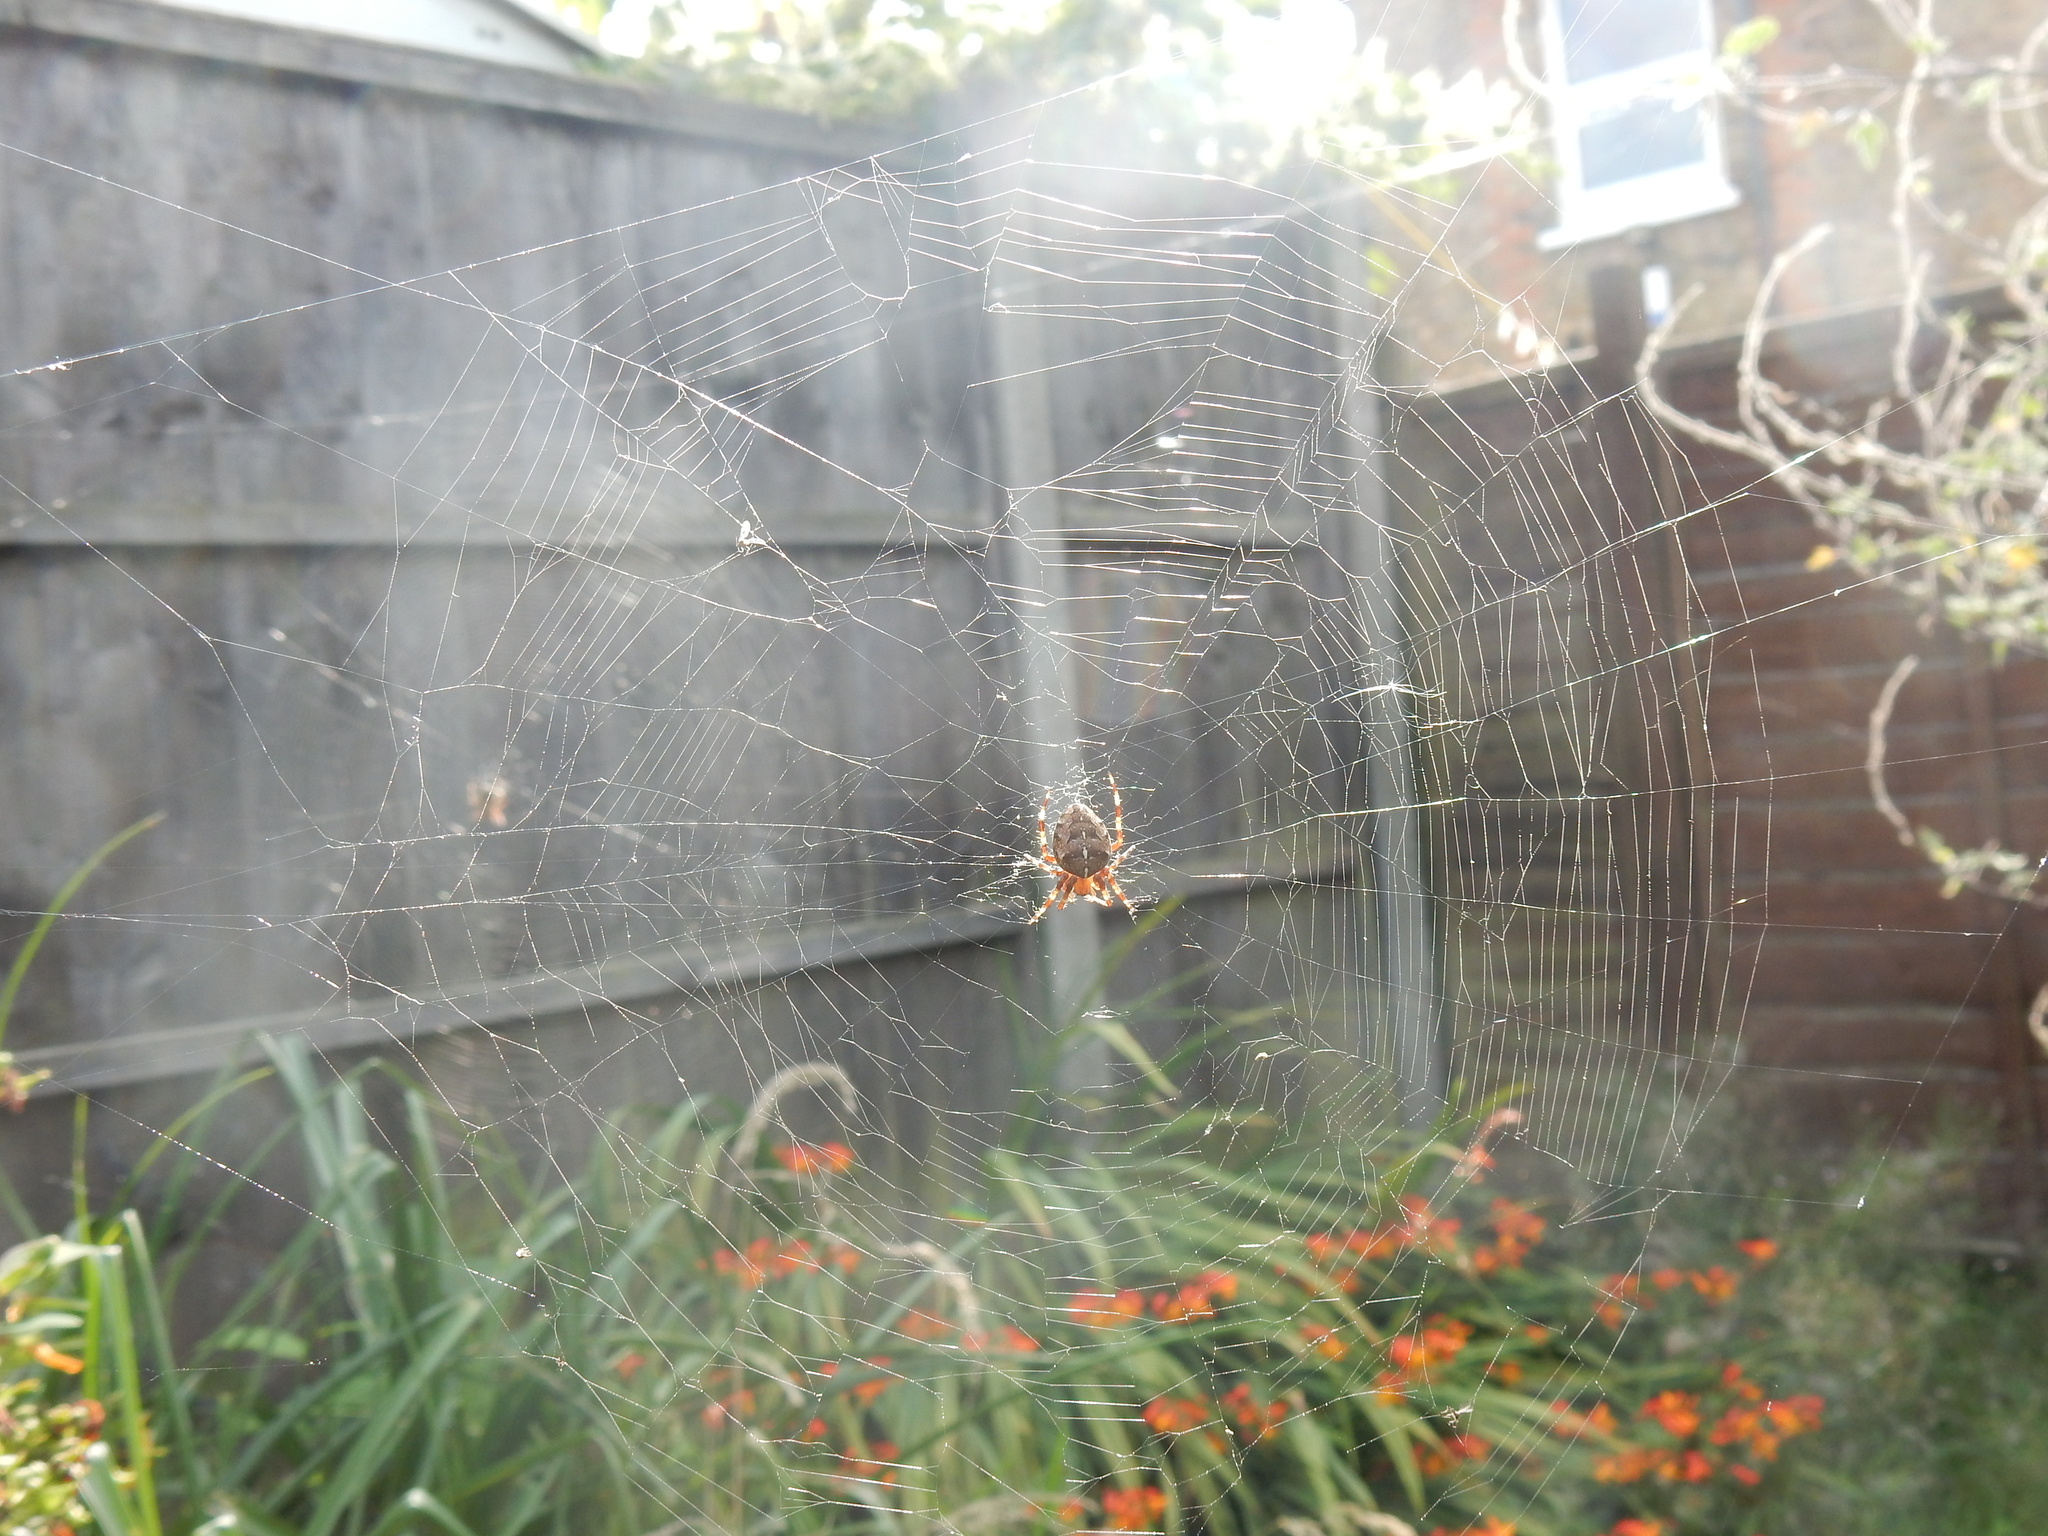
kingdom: Animalia
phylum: Arthropoda
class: Arachnida
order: Araneae
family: Araneidae
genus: Araneus
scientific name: Araneus diadematus
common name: Cross orbweaver
